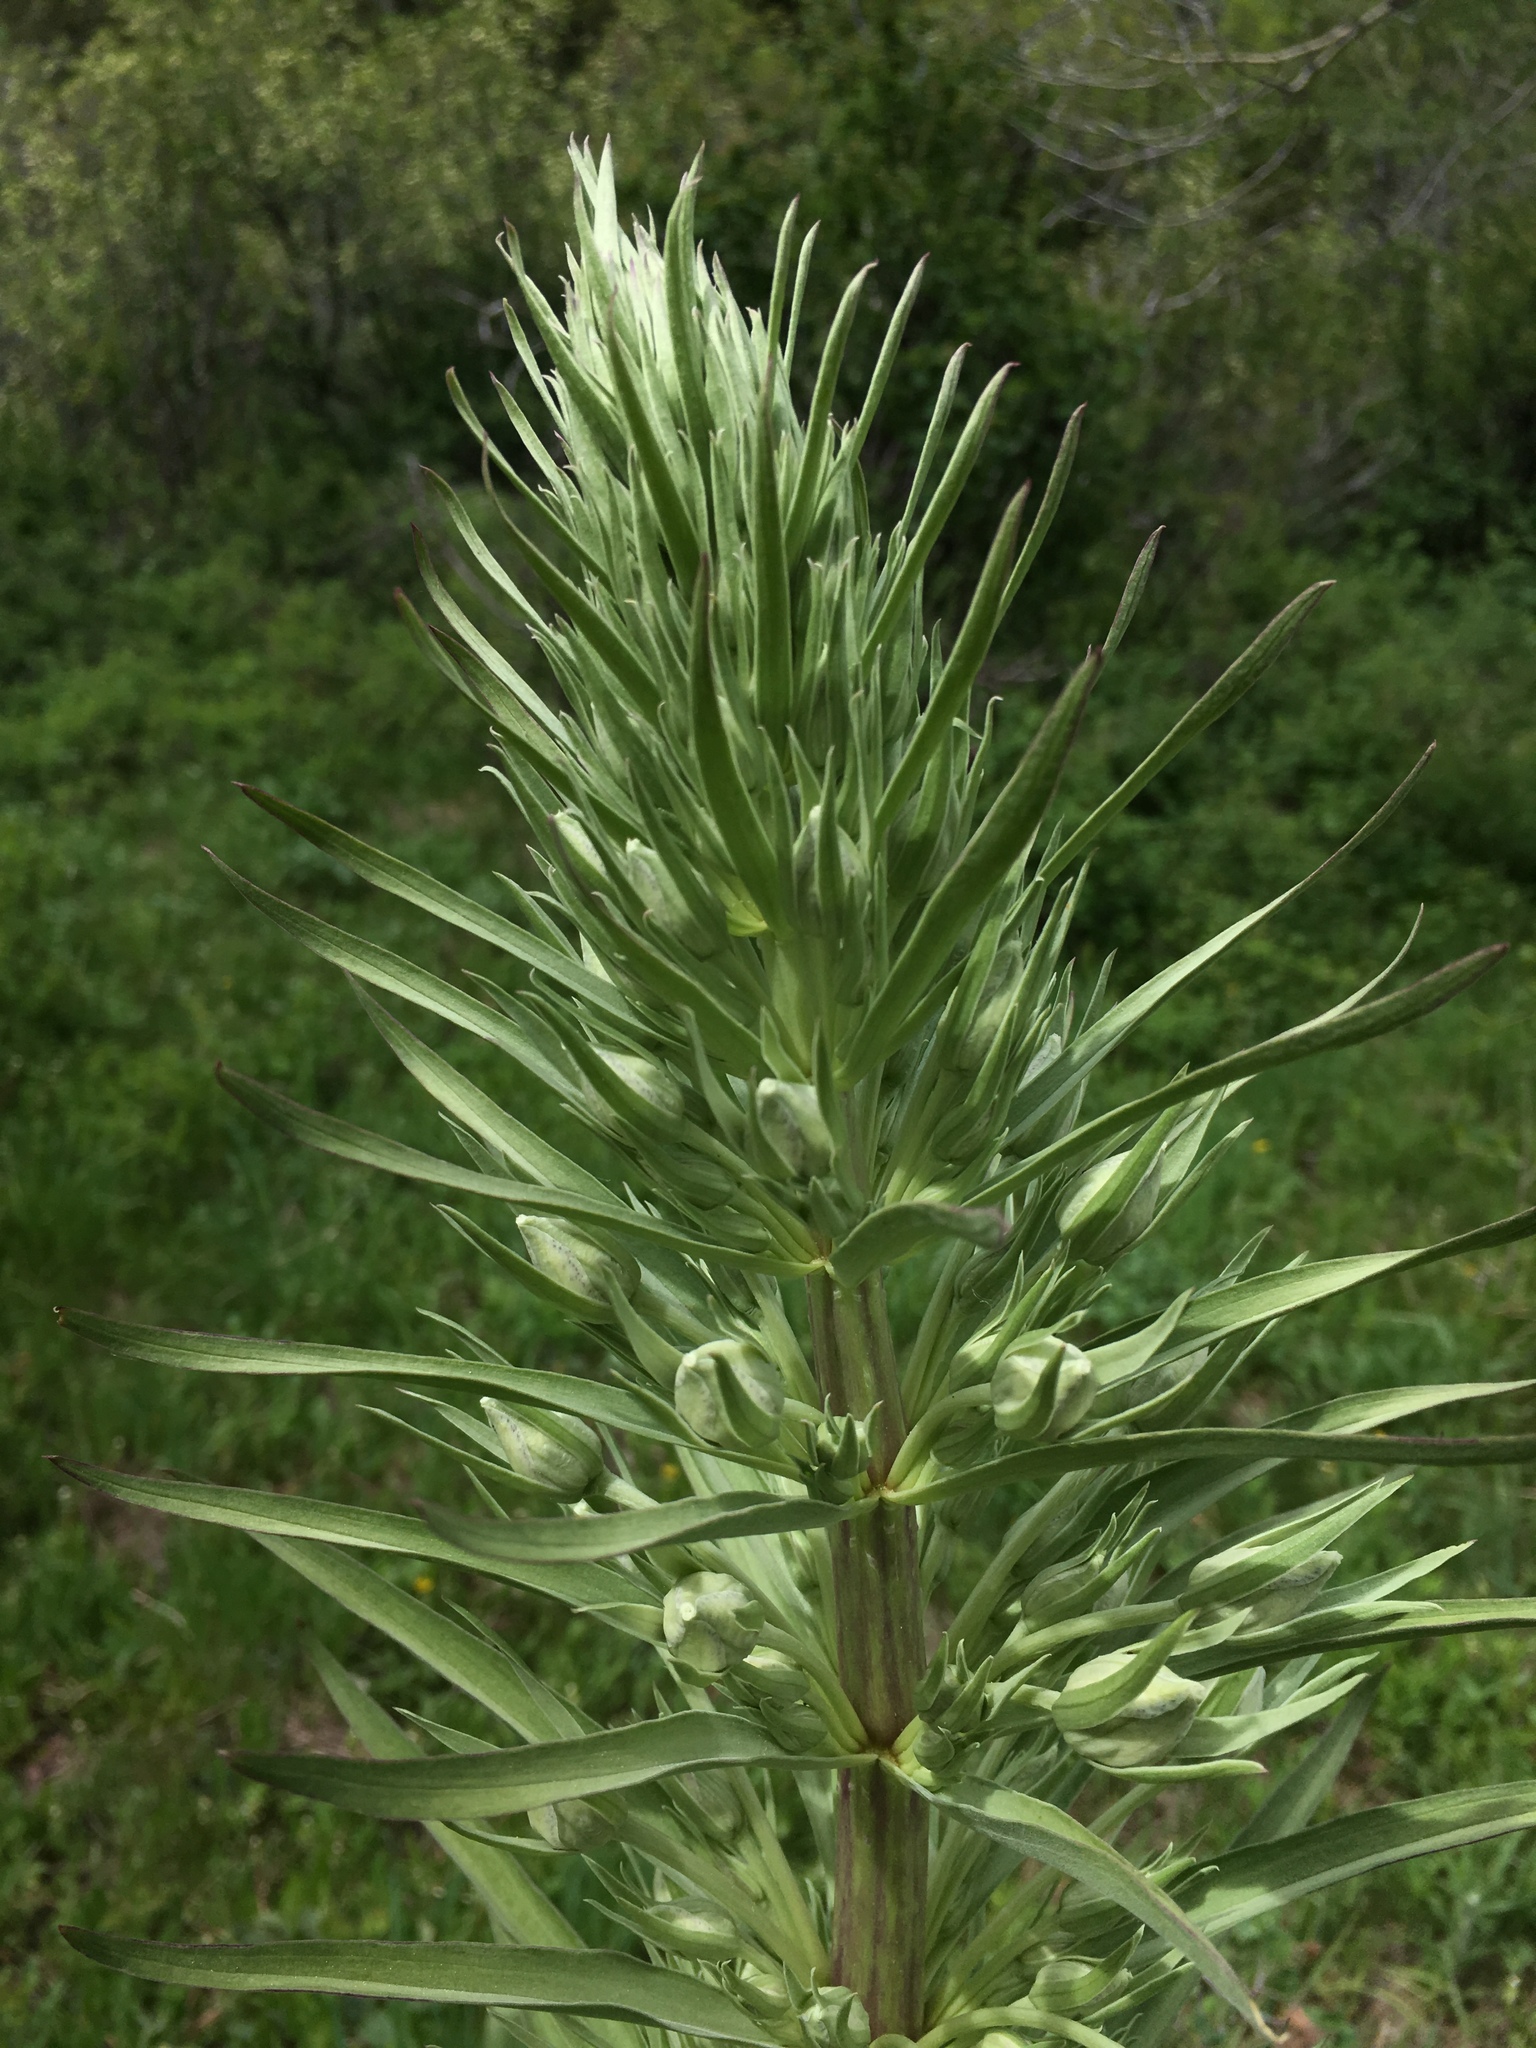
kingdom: Plantae
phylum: Tracheophyta
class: Magnoliopsida
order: Gentianales
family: Gentianaceae
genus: Frasera
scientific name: Frasera speciosa
